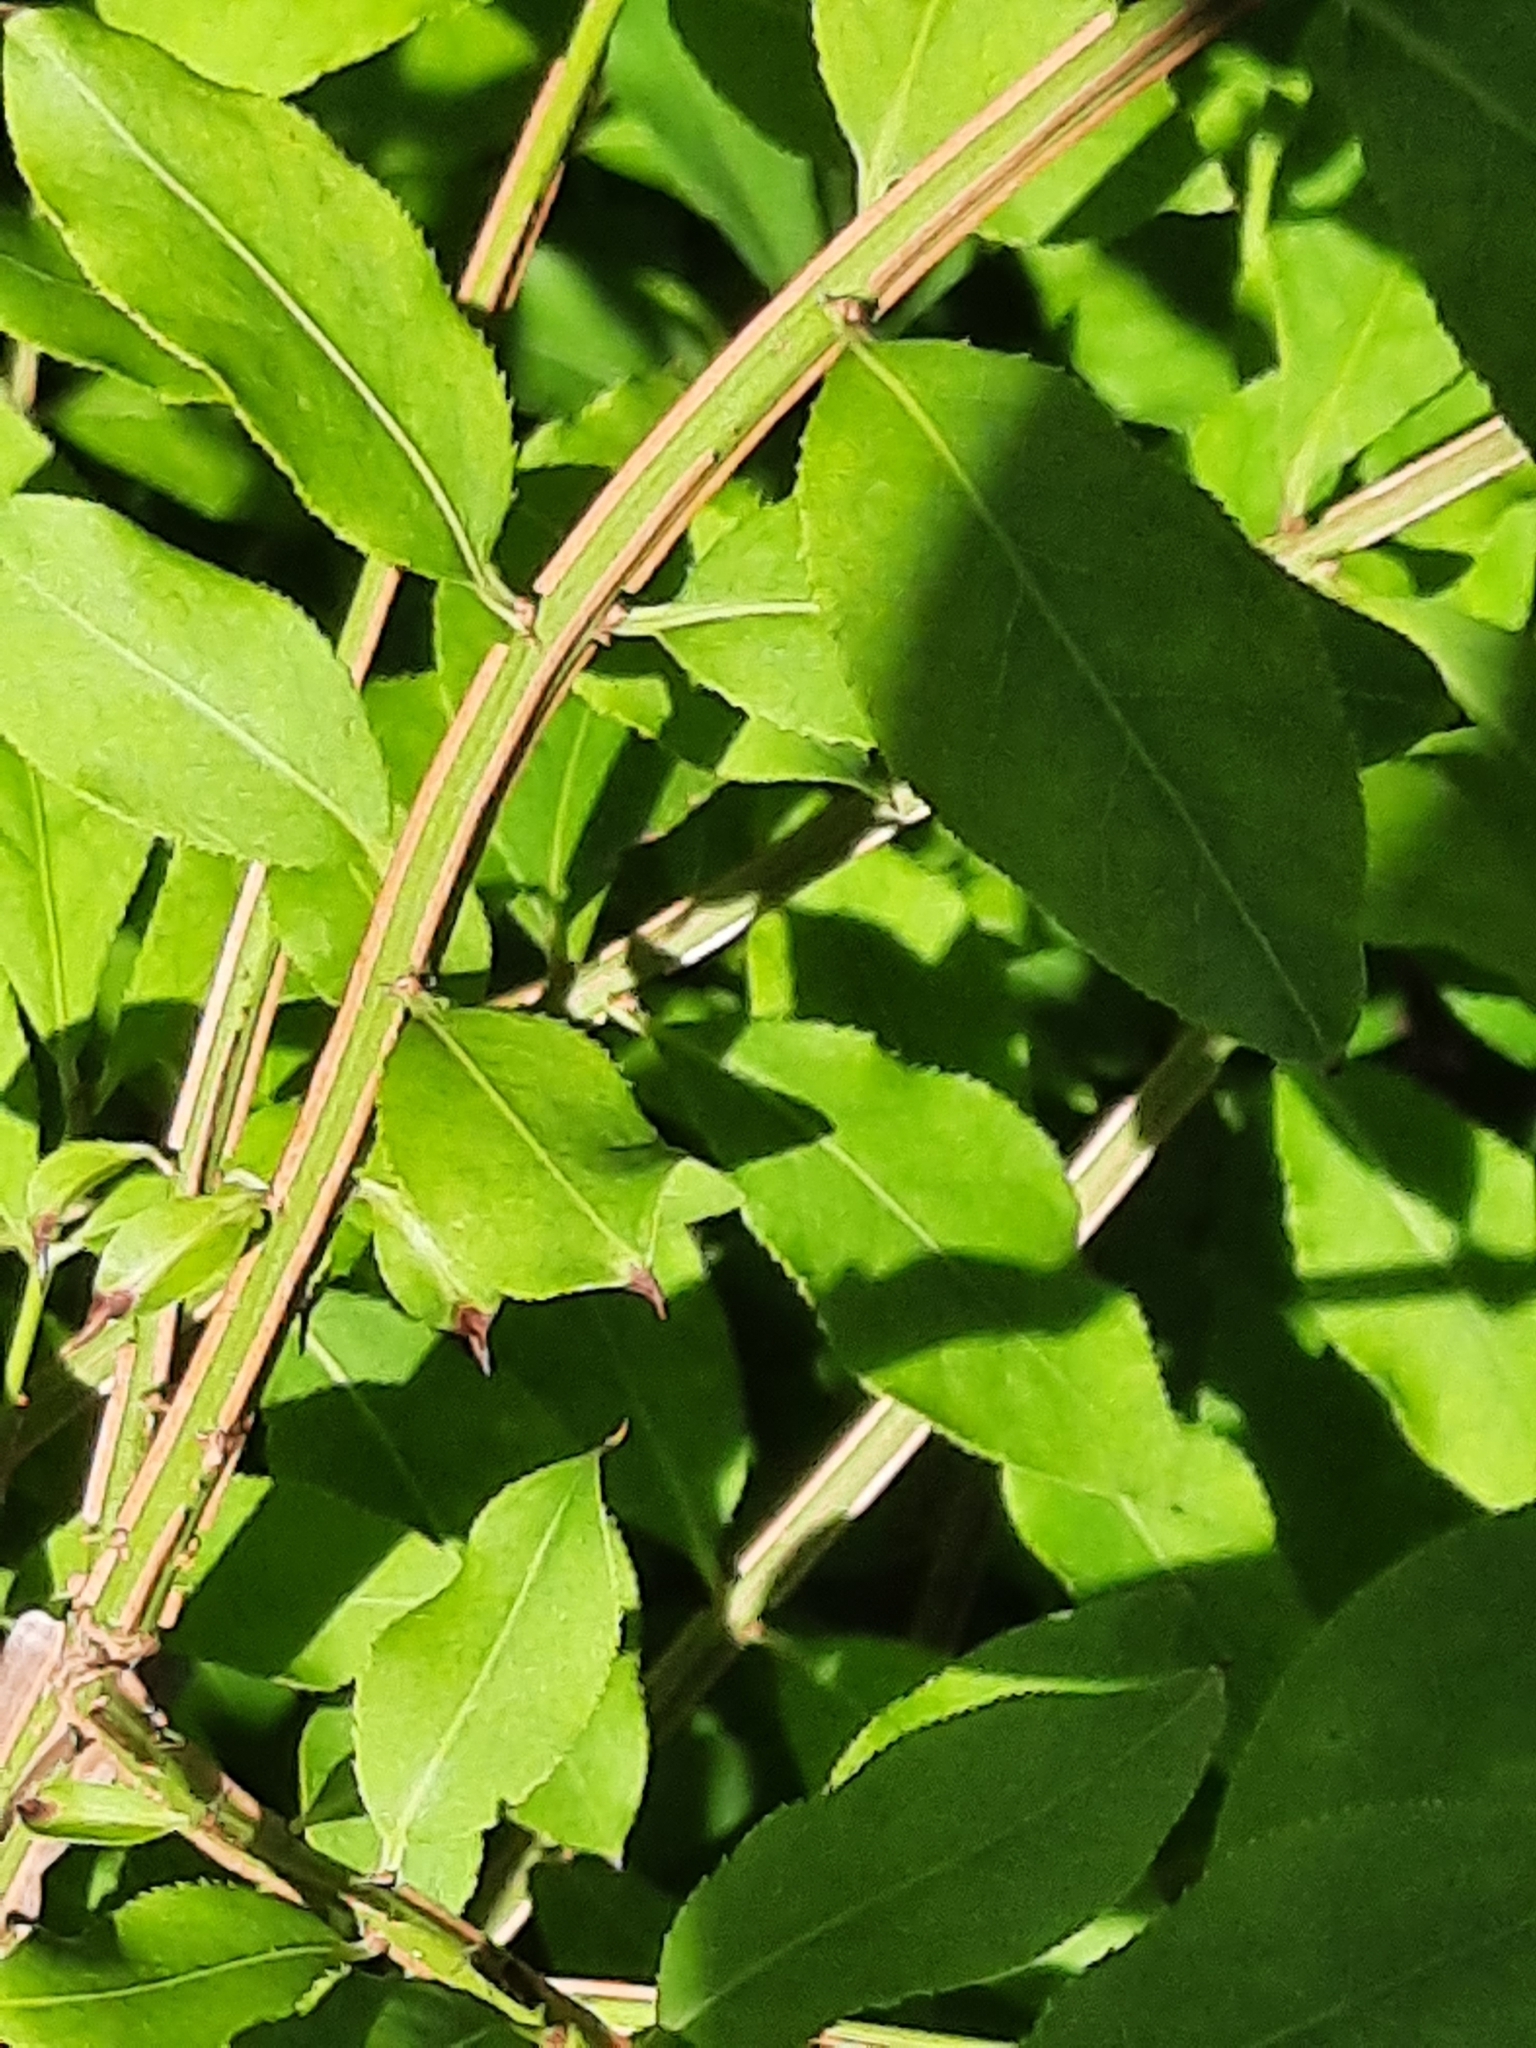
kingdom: Plantae
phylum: Tracheophyta
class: Magnoliopsida
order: Celastrales
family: Celastraceae
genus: Euonymus
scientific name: Euonymus alatus
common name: Winged euonymus
